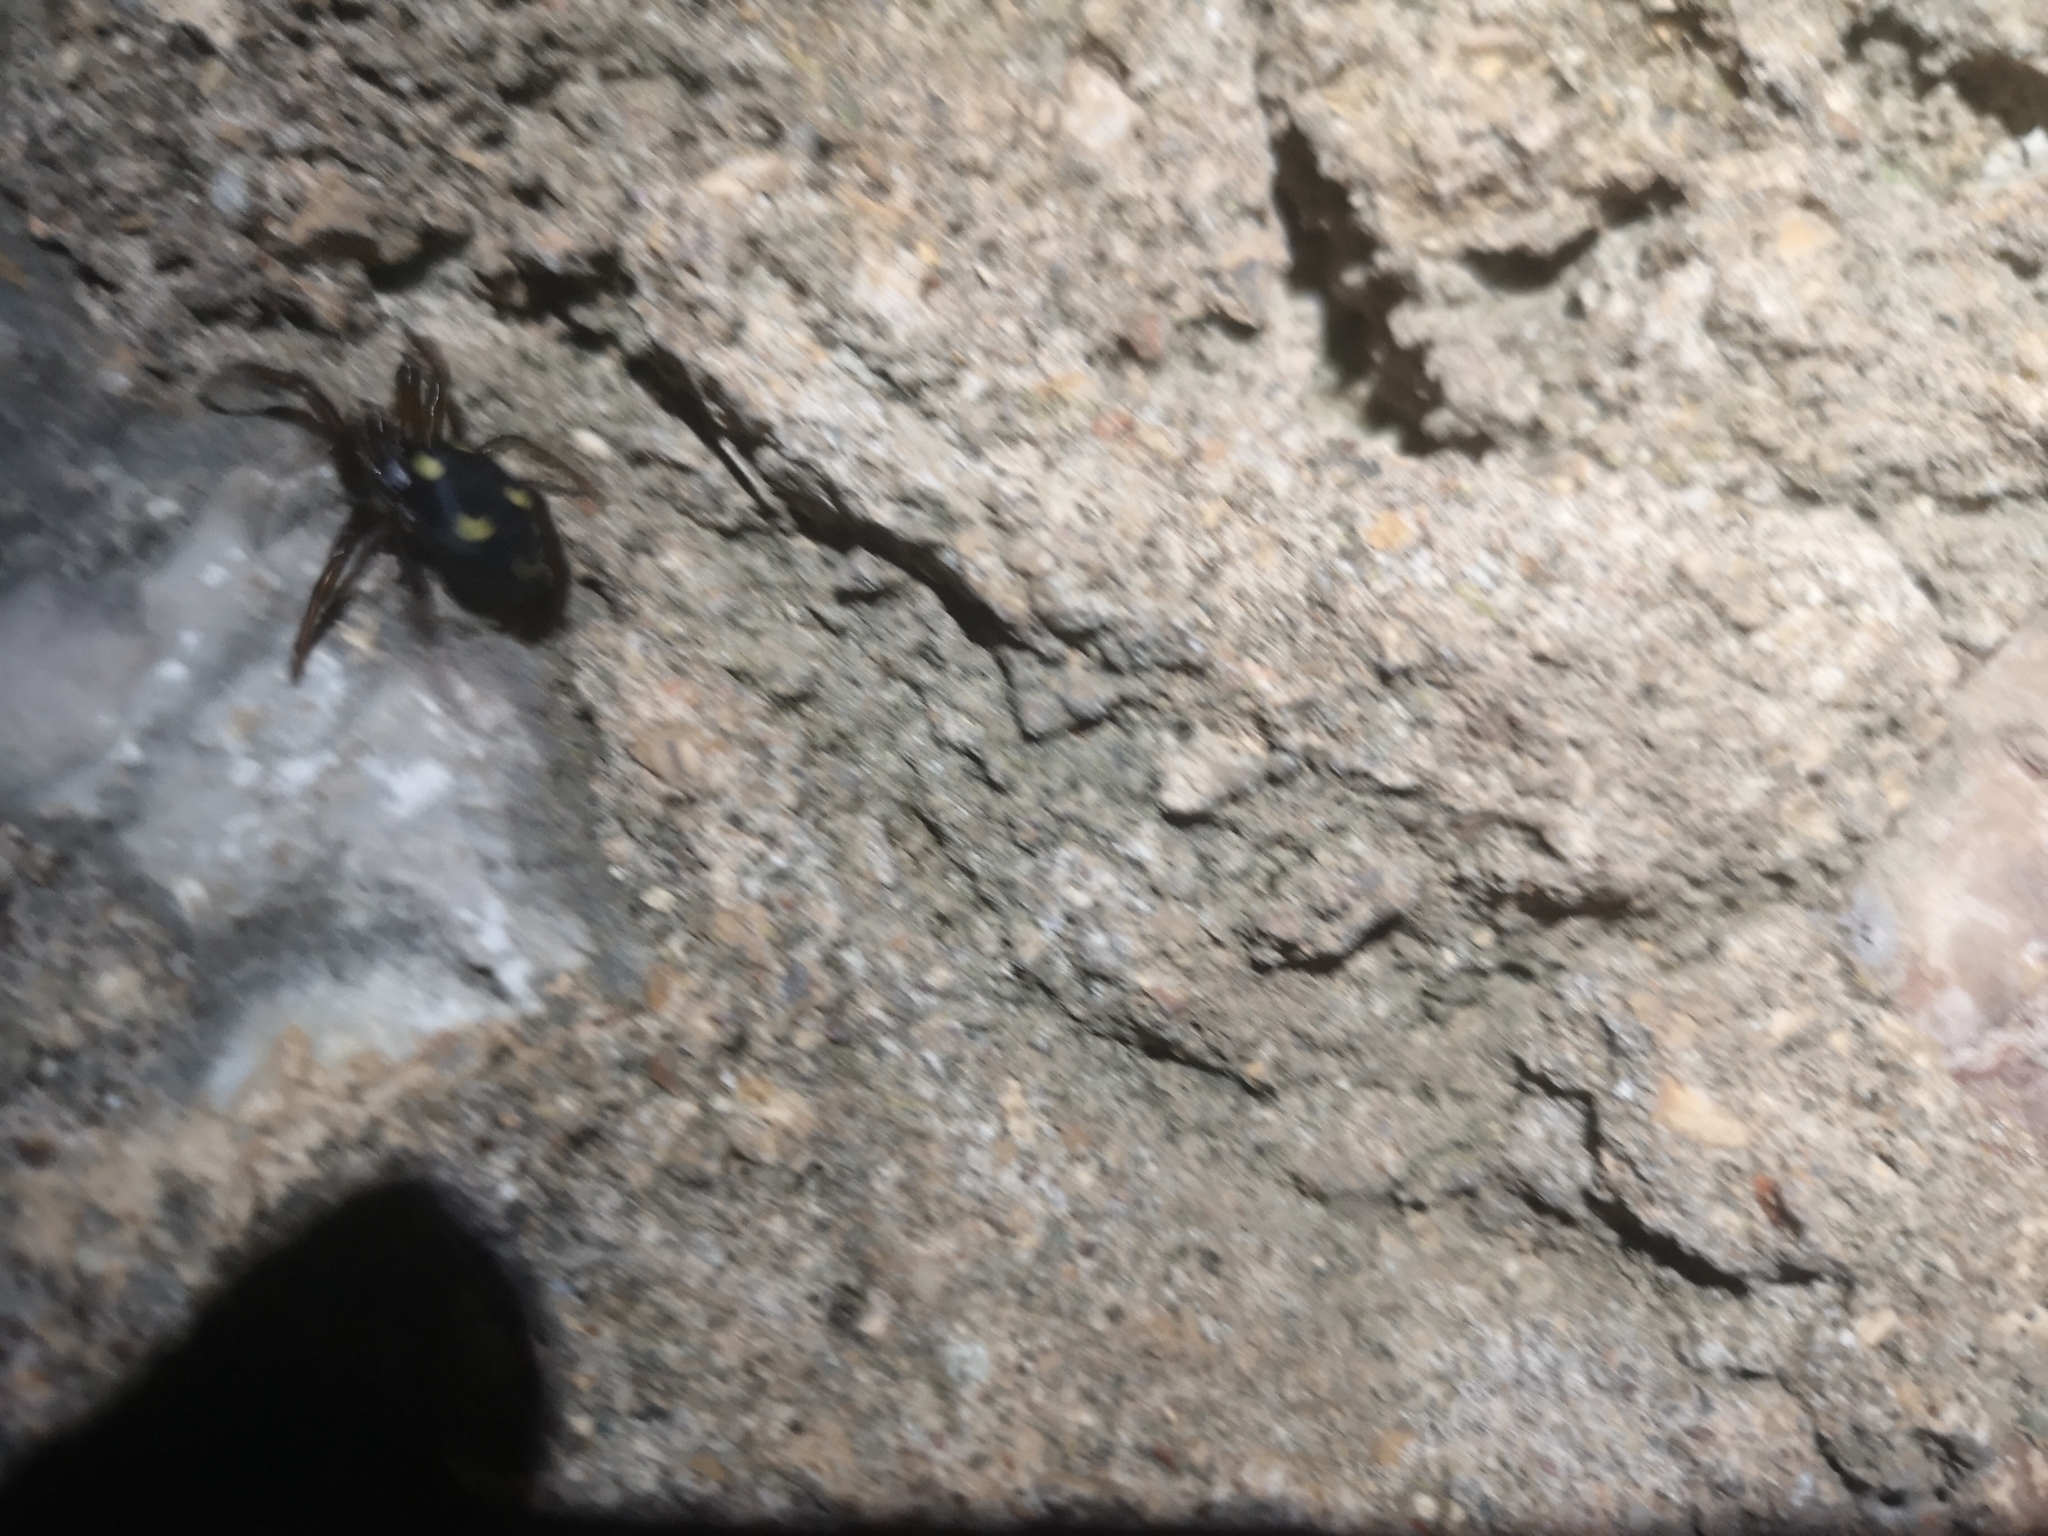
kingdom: Animalia
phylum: Arthropoda
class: Arachnida
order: Araneae
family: Oecobiidae
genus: Uroctea
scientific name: Uroctea durandi
